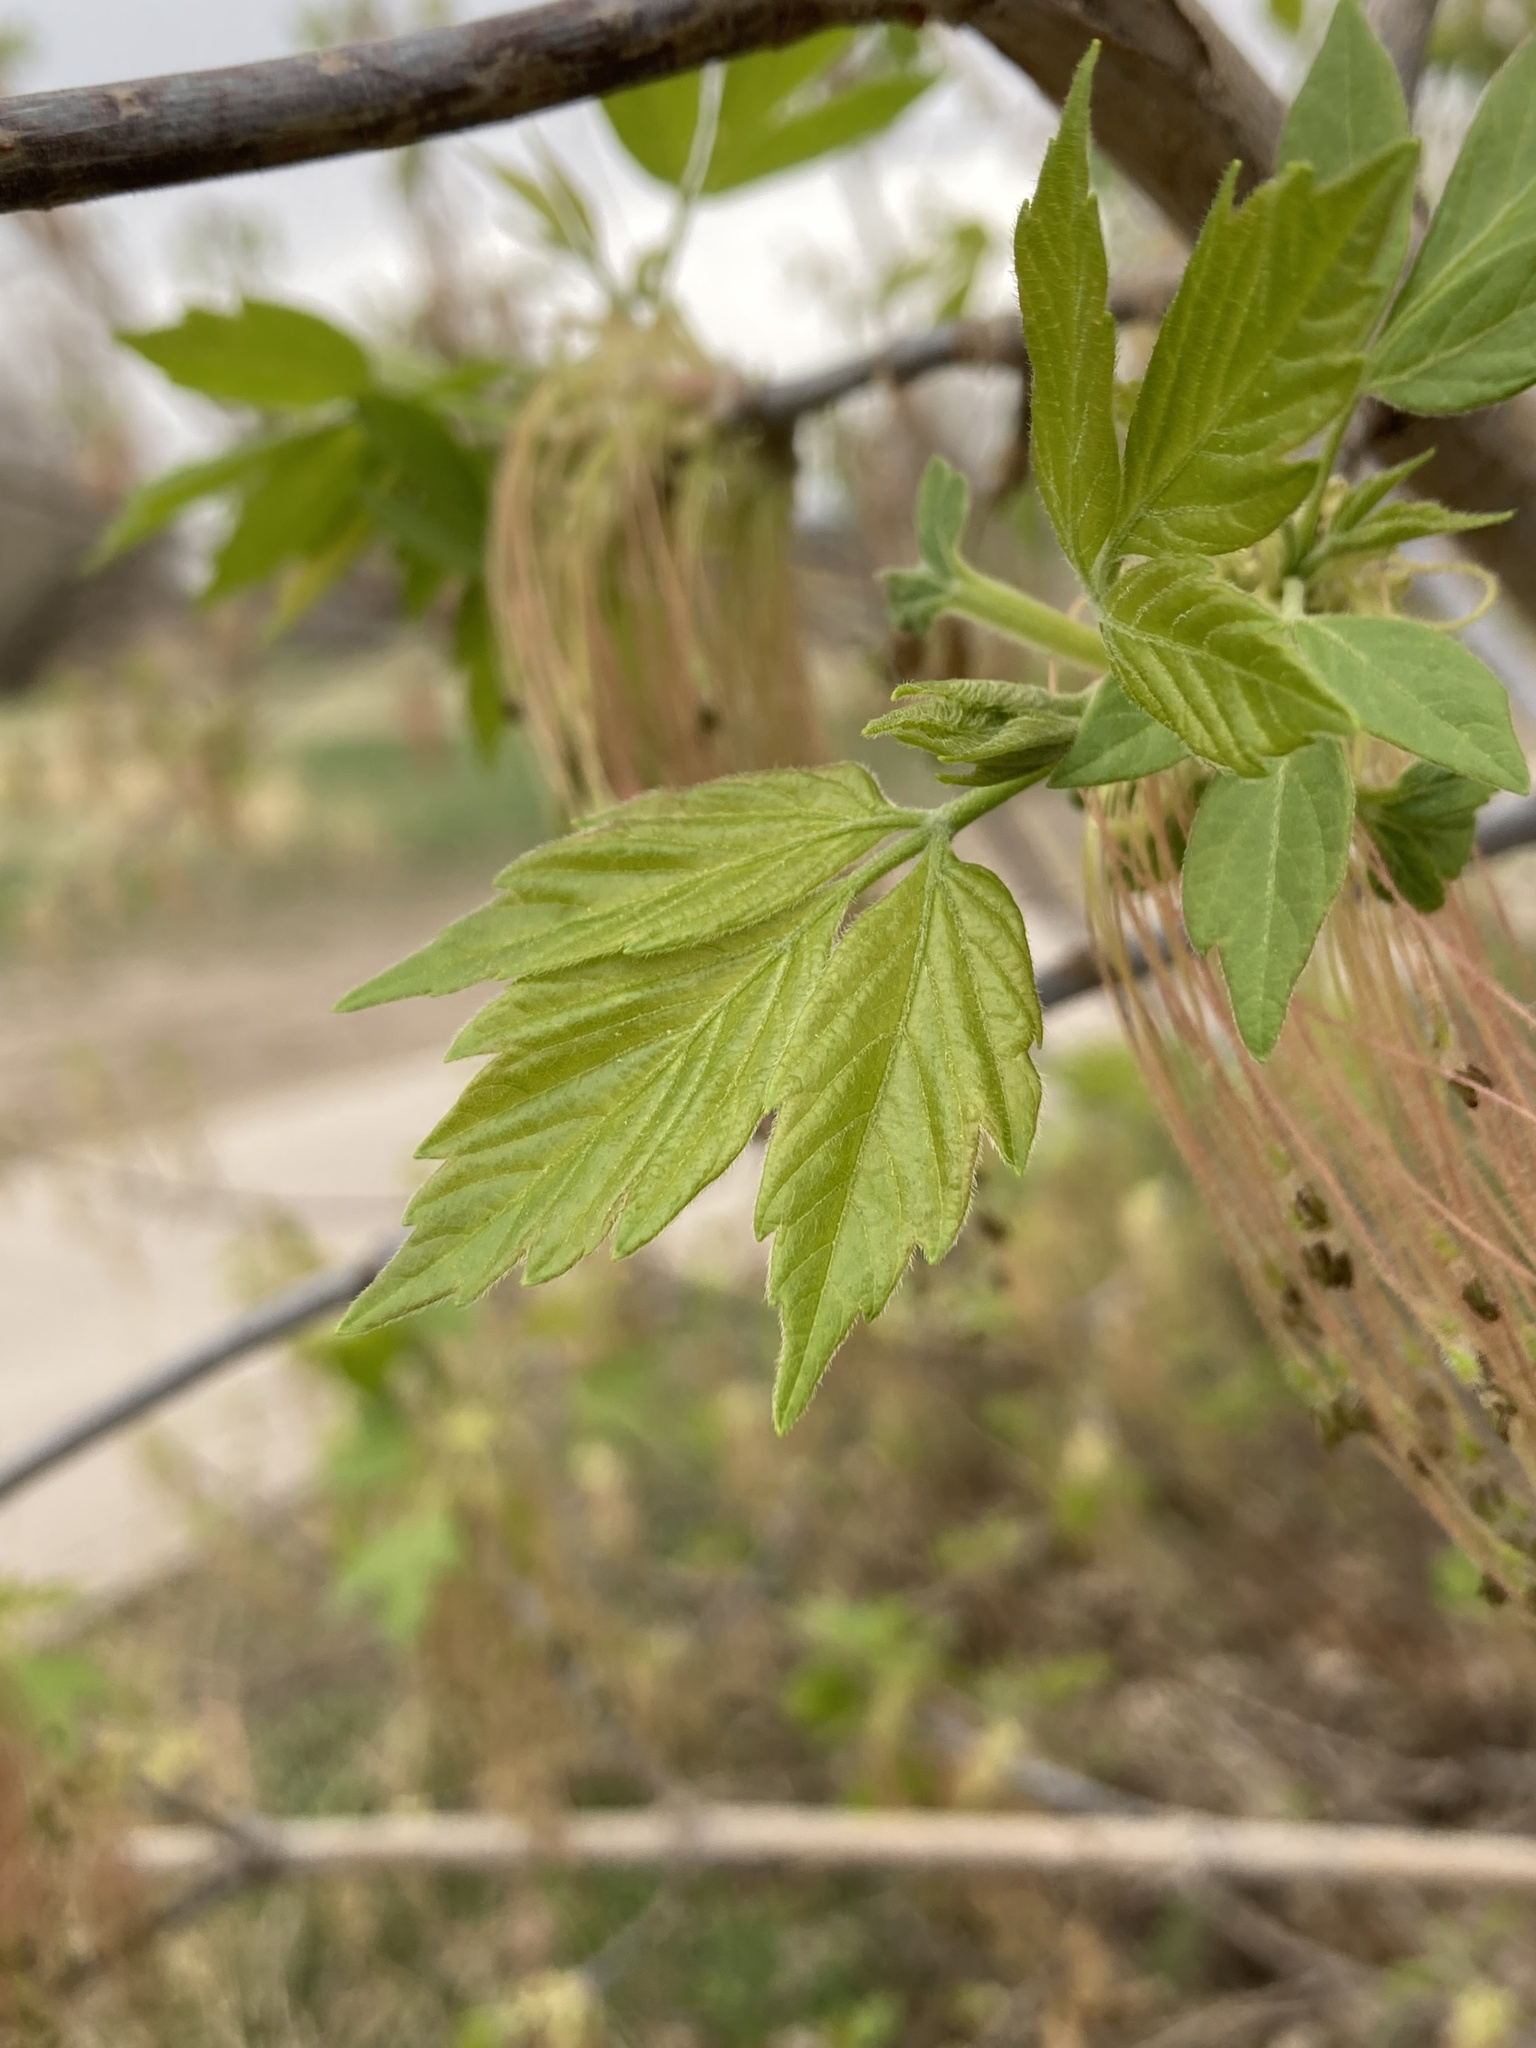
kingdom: Plantae
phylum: Tracheophyta
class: Magnoliopsida
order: Sapindales
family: Sapindaceae
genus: Acer
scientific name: Acer negundo
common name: Ashleaf maple
